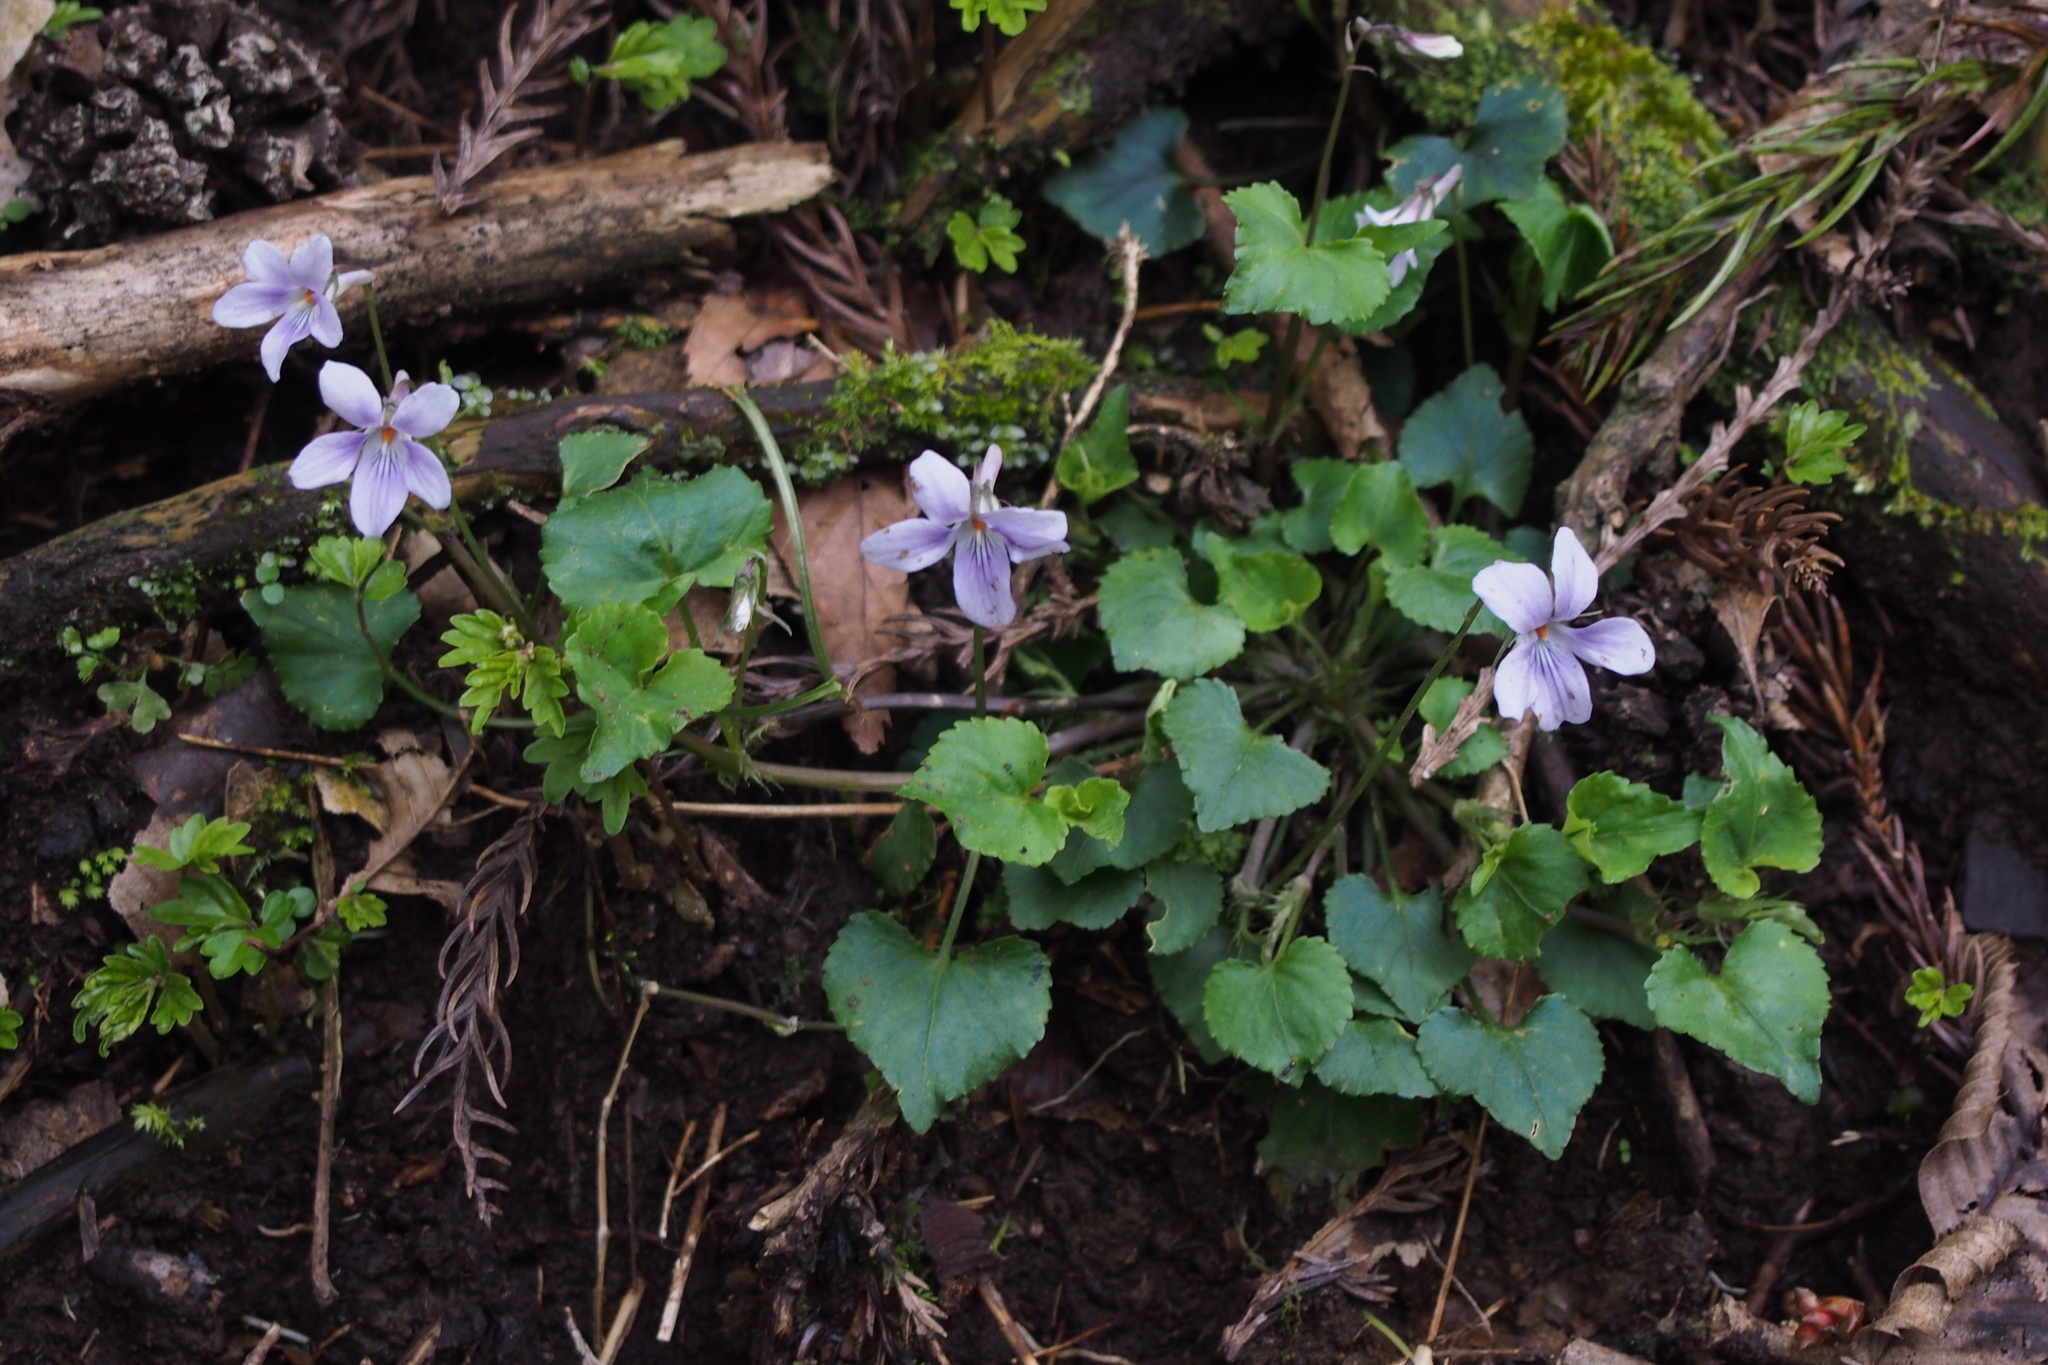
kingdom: Plantae
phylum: Tracheophyta
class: Magnoliopsida
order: Malpighiales
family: Violaceae
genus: Viola
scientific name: Viola grypoceras
